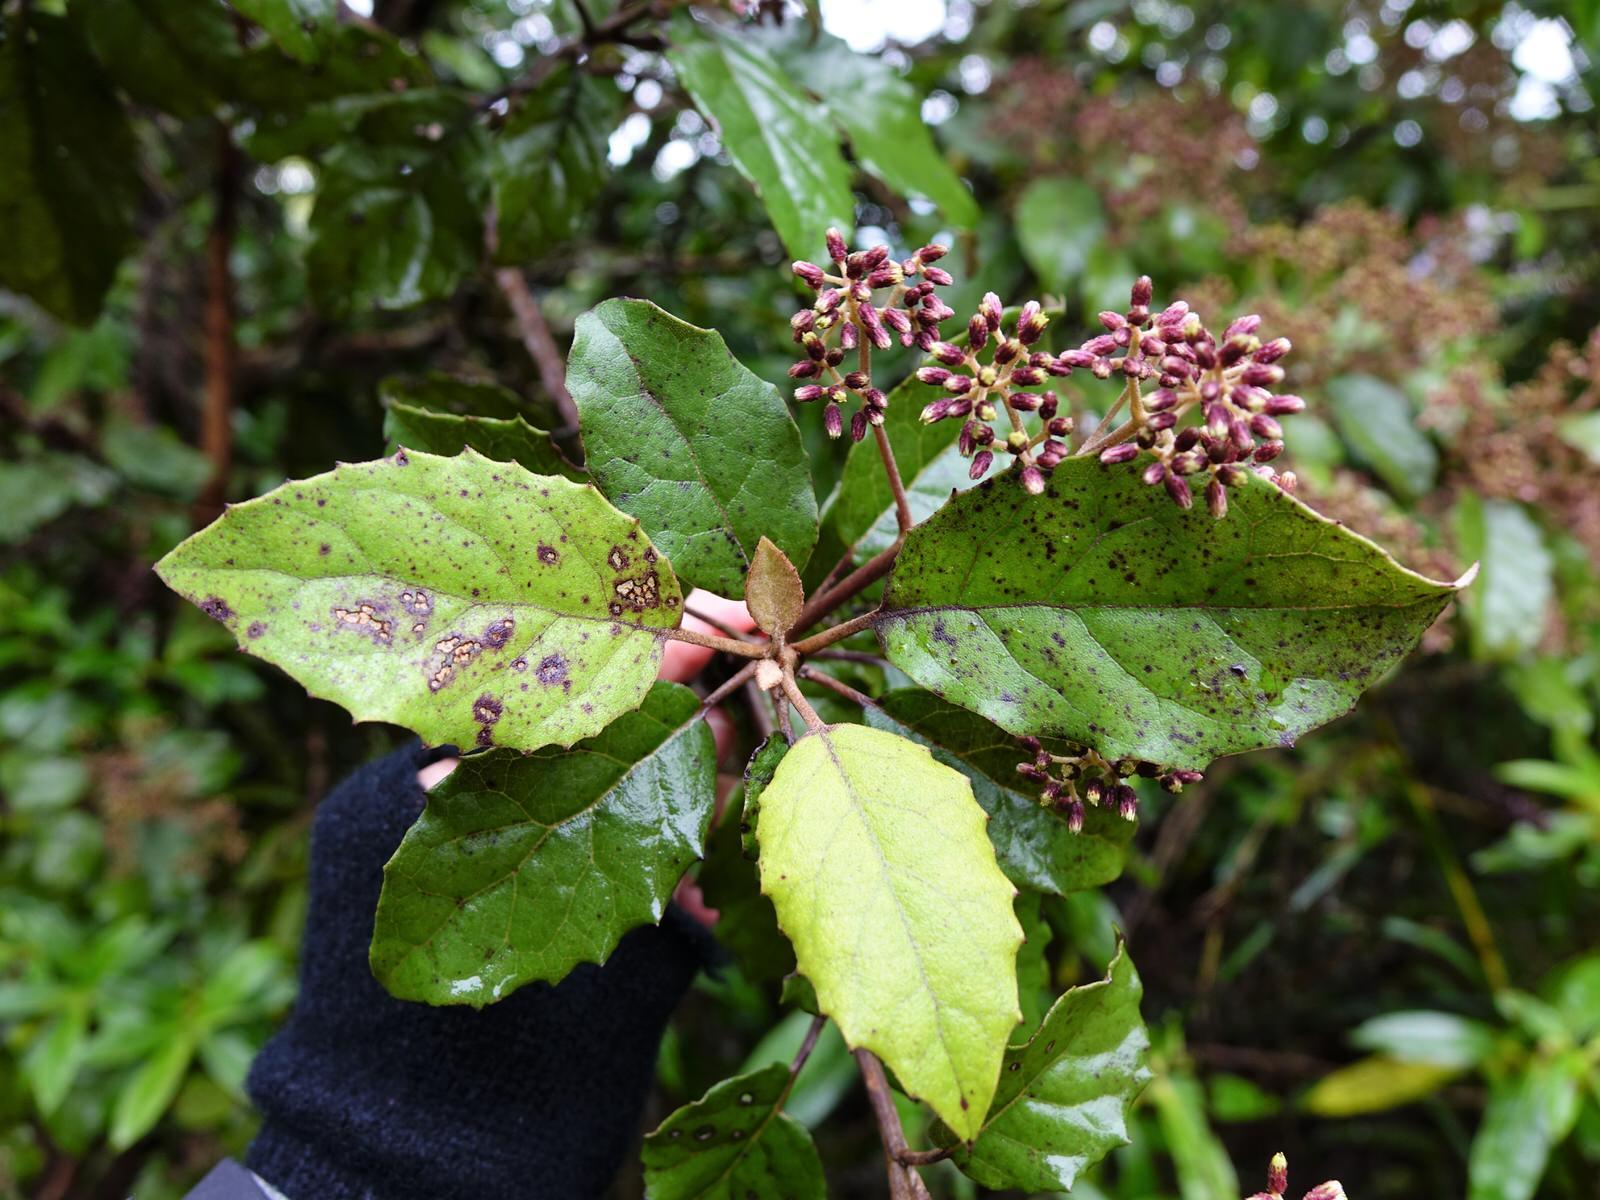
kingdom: Plantae
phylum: Tracheophyta
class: Magnoliopsida
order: Asterales
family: Asteraceae
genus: Olearia
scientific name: Olearia rani
